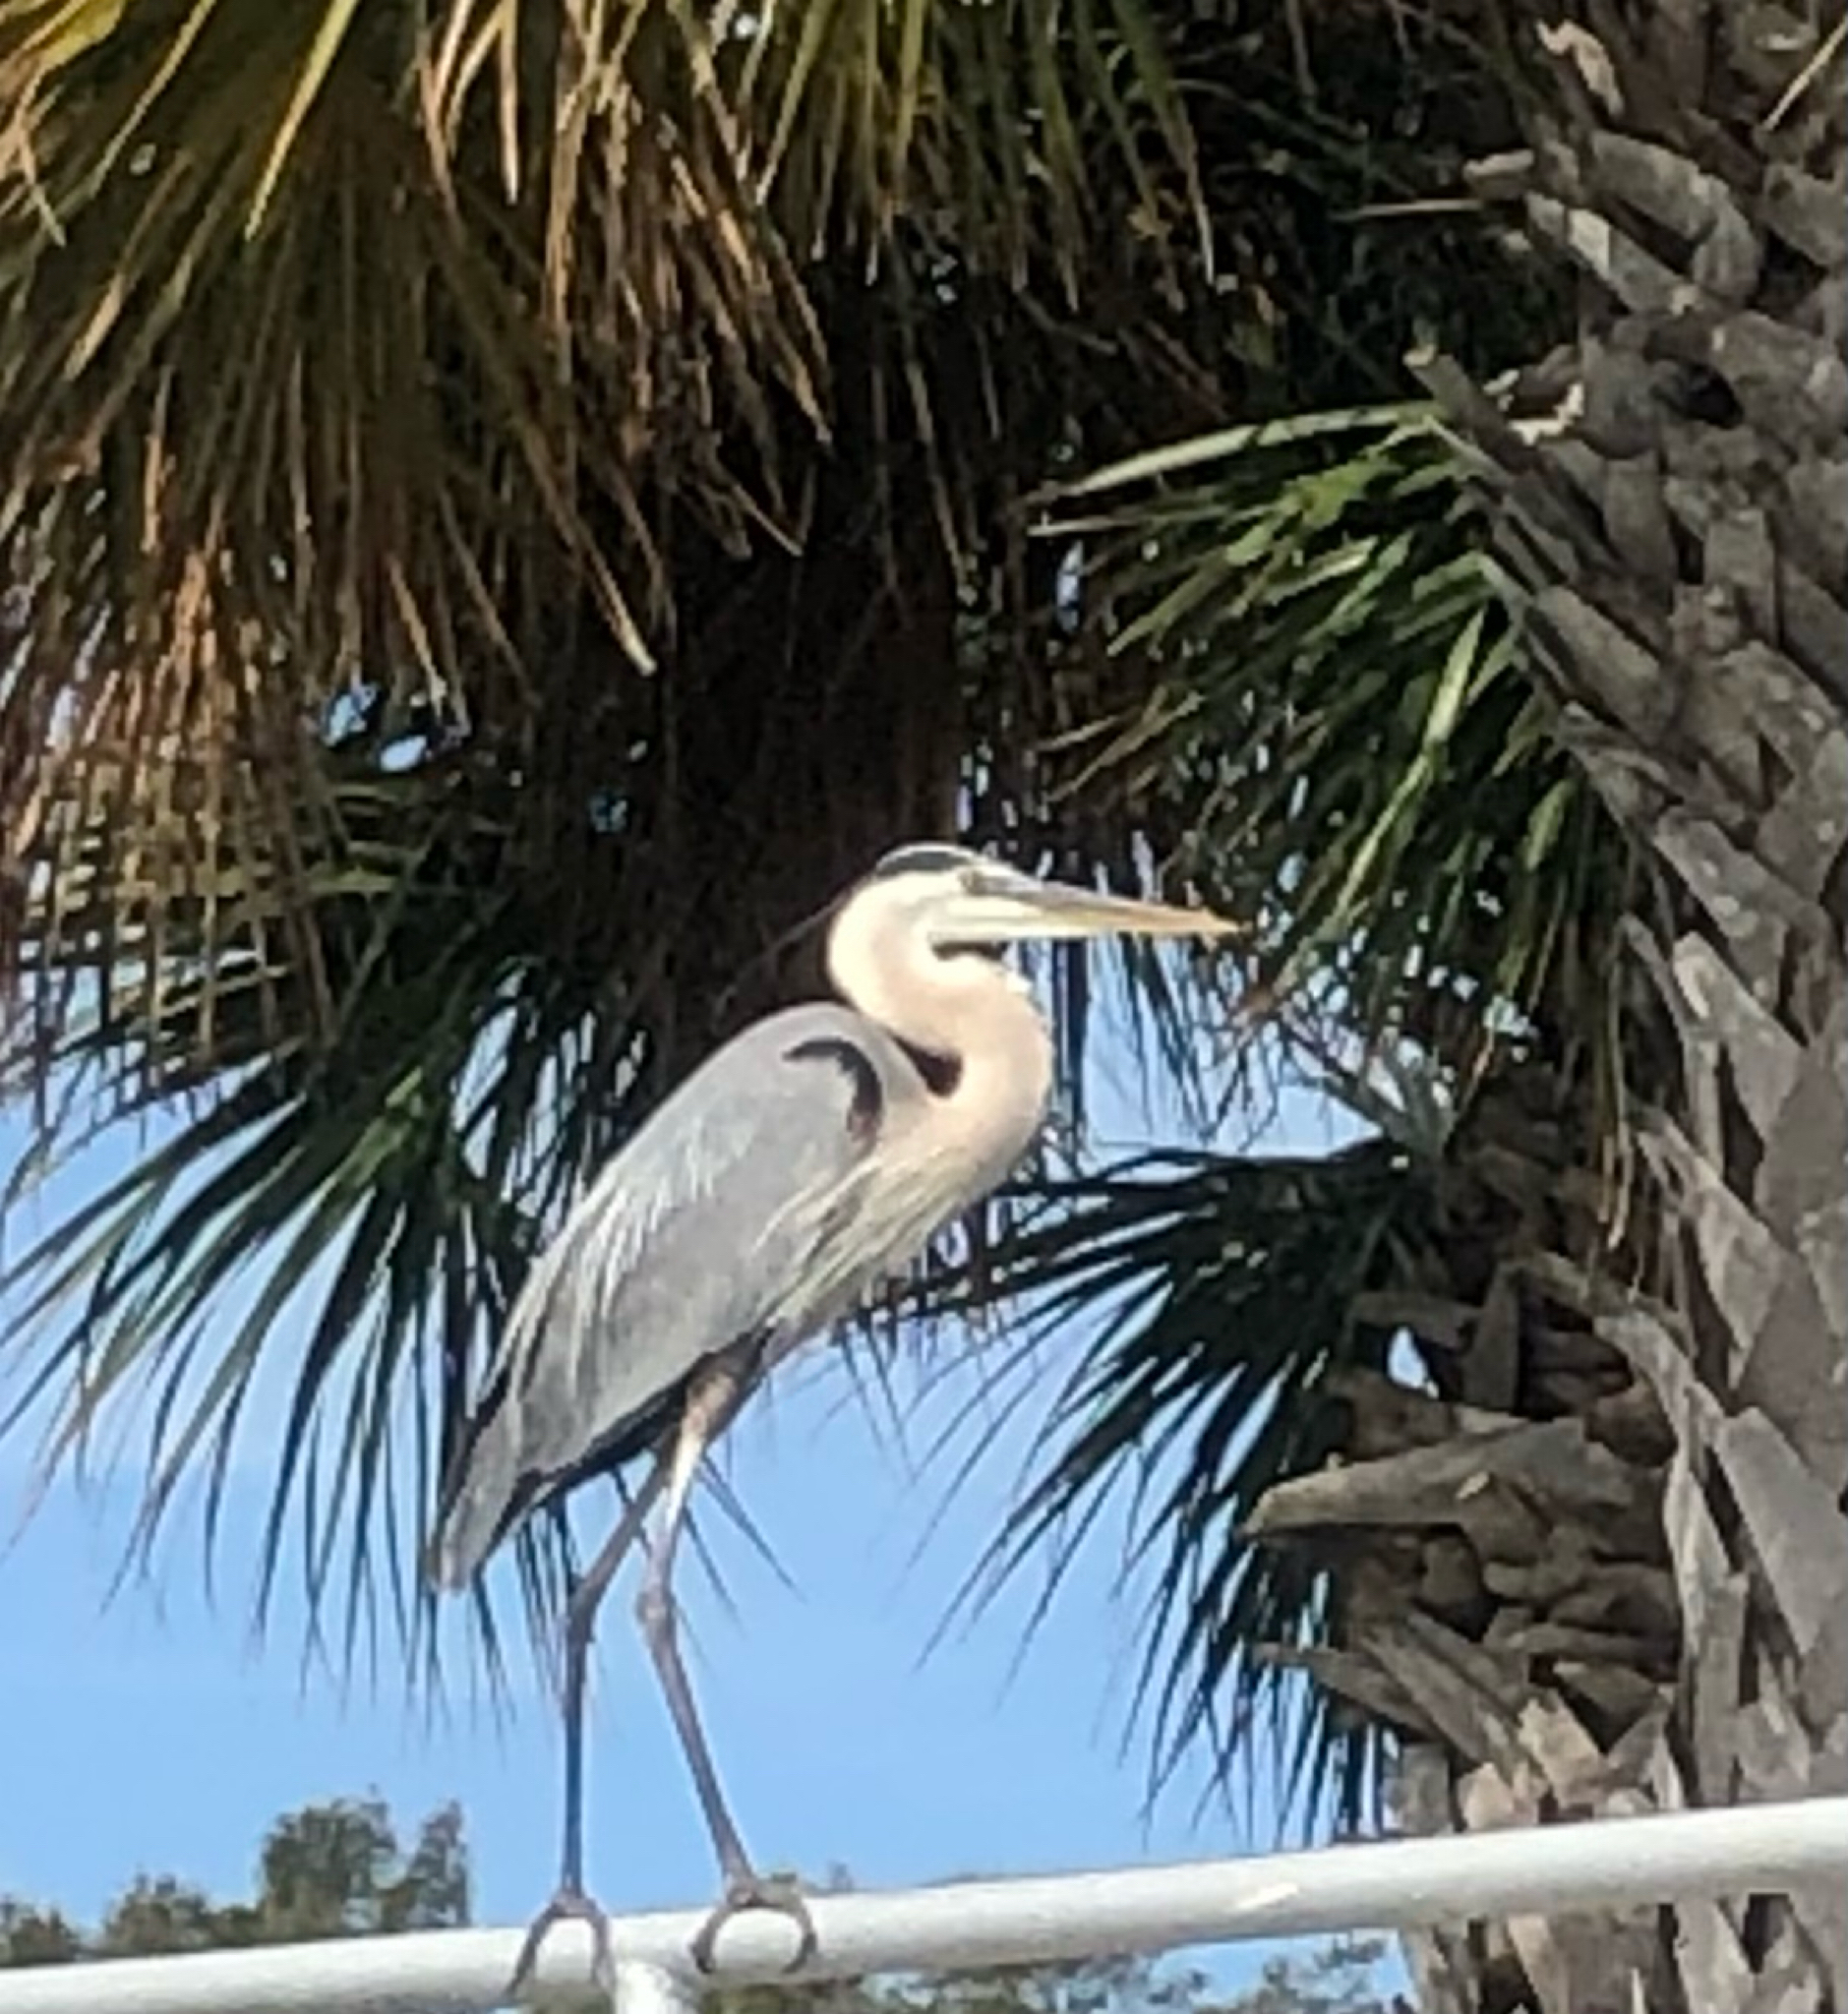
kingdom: Animalia
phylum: Chordata
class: Aves
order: Pelecaniformes
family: Ardeidae
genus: Ardea
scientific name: Ardea herodias
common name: Great blue heron
